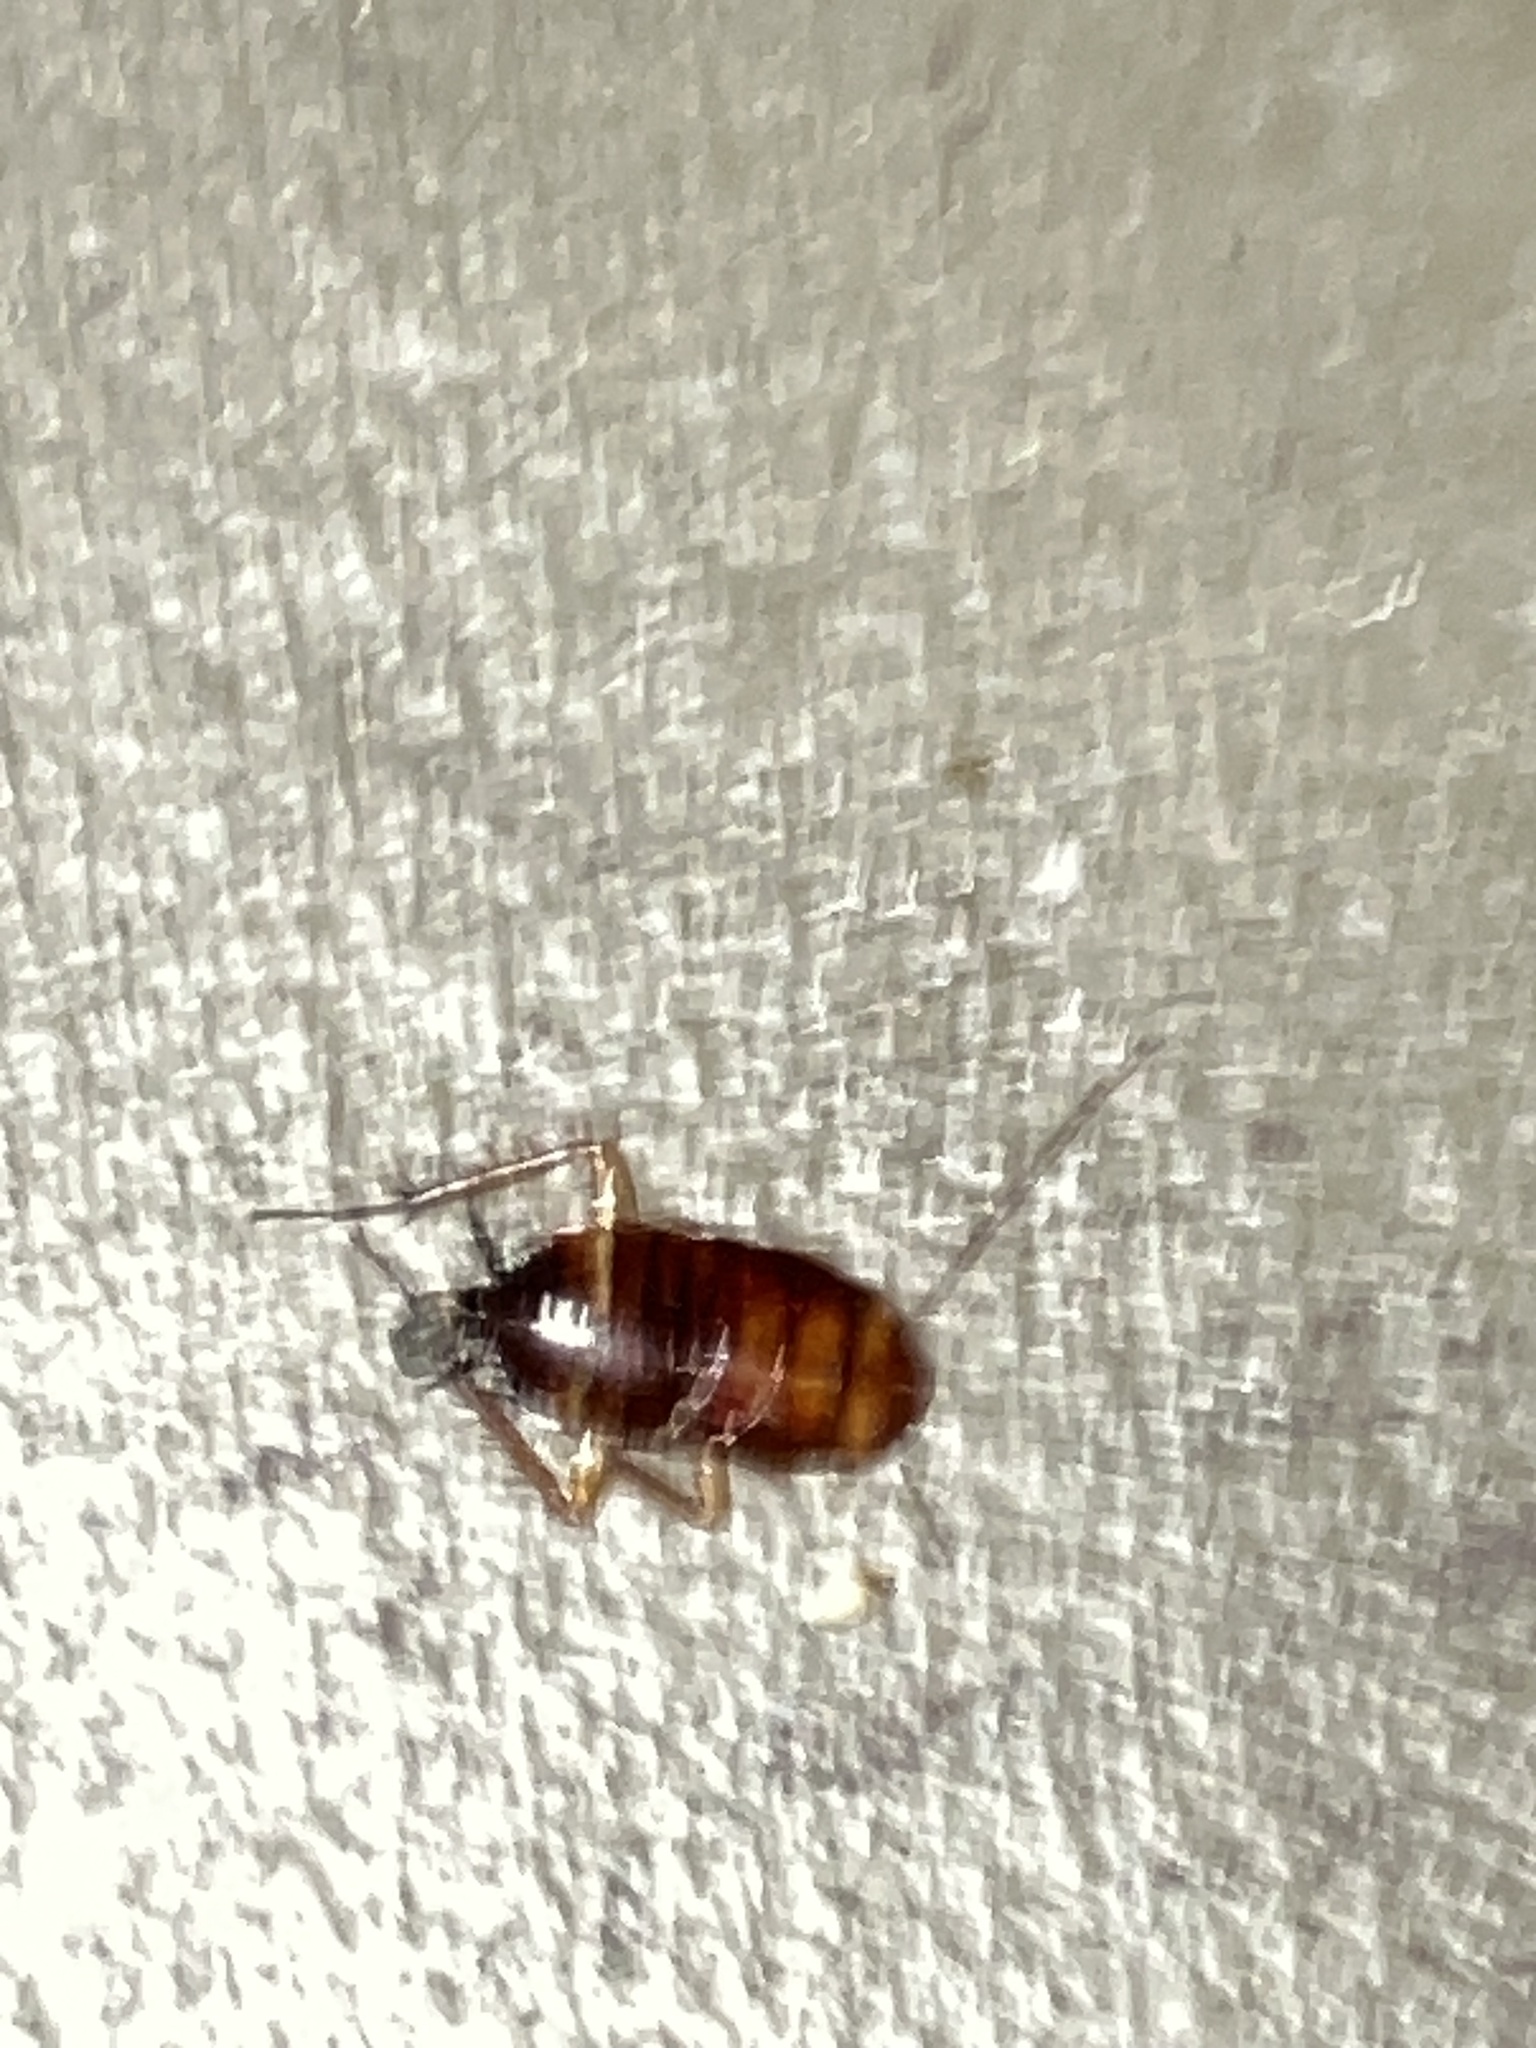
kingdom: Animalia
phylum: Arthropoda
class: Insecta
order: Blattodea
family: Blattidae
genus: Periplaneta
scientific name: Periplaneta americana
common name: American cockroach
